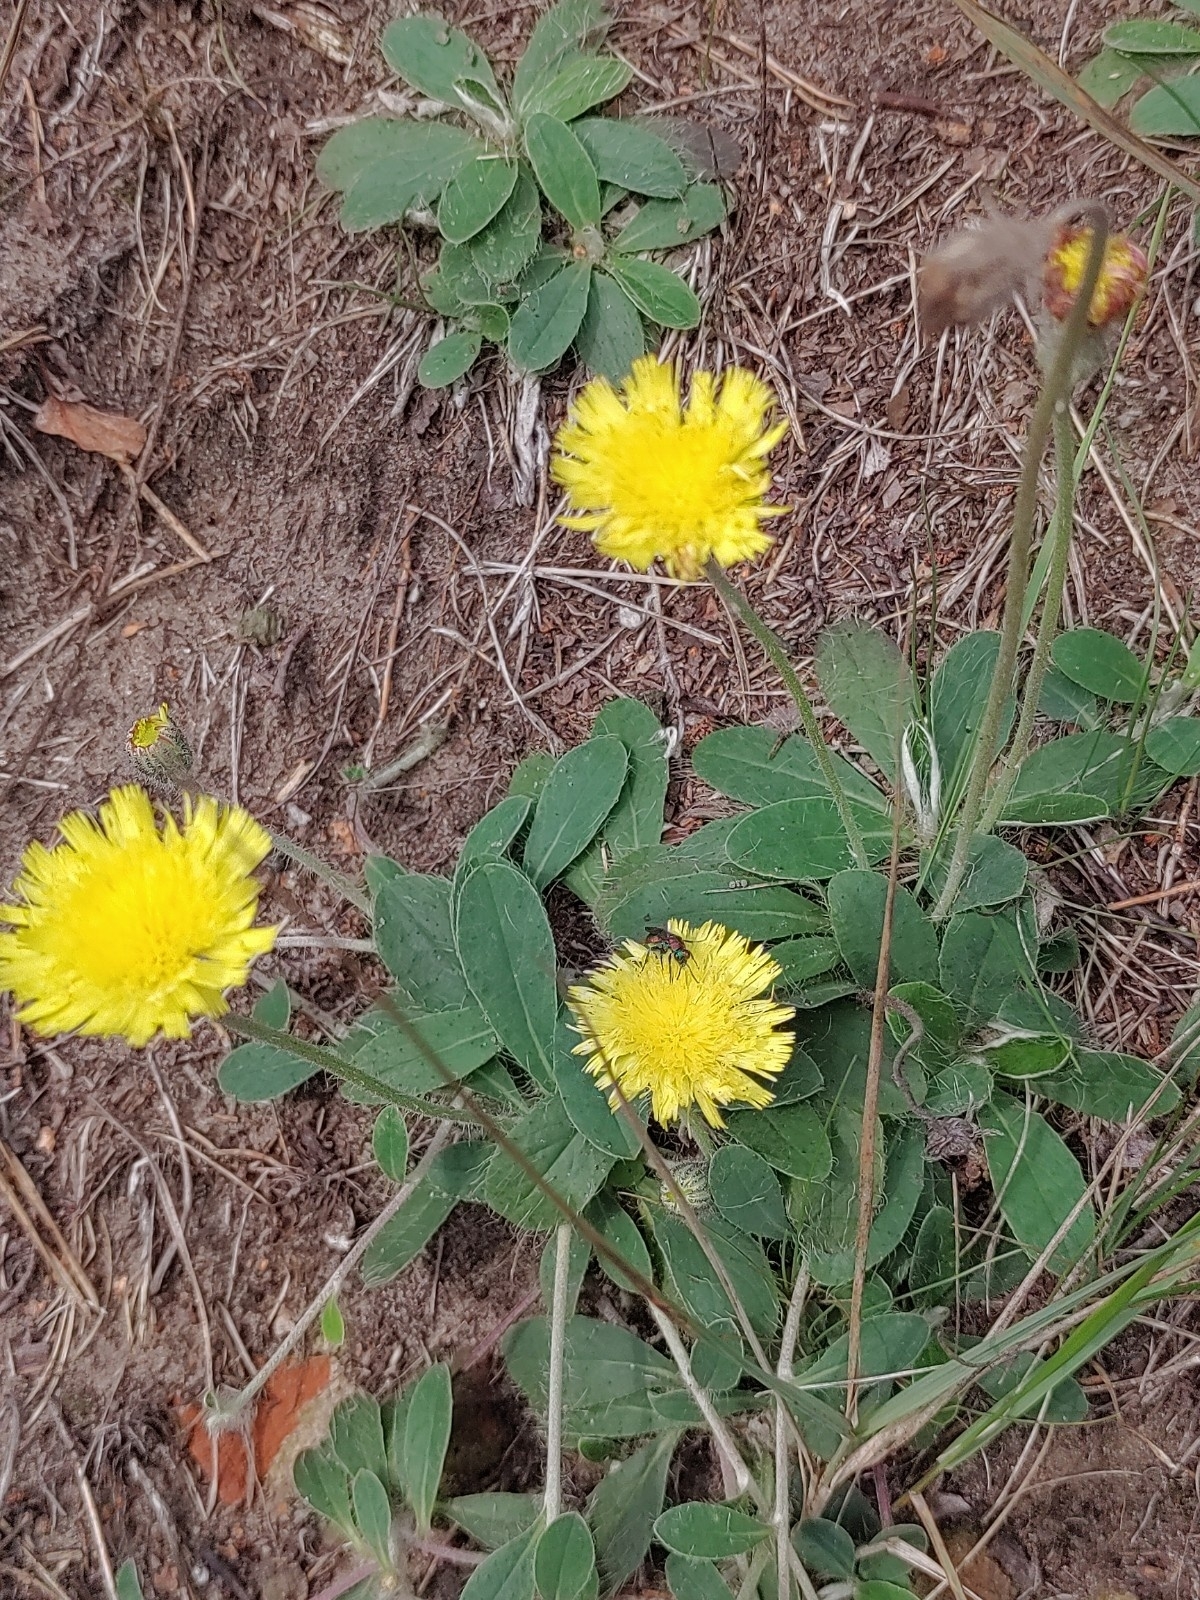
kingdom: Plantae
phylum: Tracheophyta
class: Magnoliopsida
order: Asterales
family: Asteraceae
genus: Pilosella
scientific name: Pilosella officinarum
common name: Mouse-ear hawkweed
